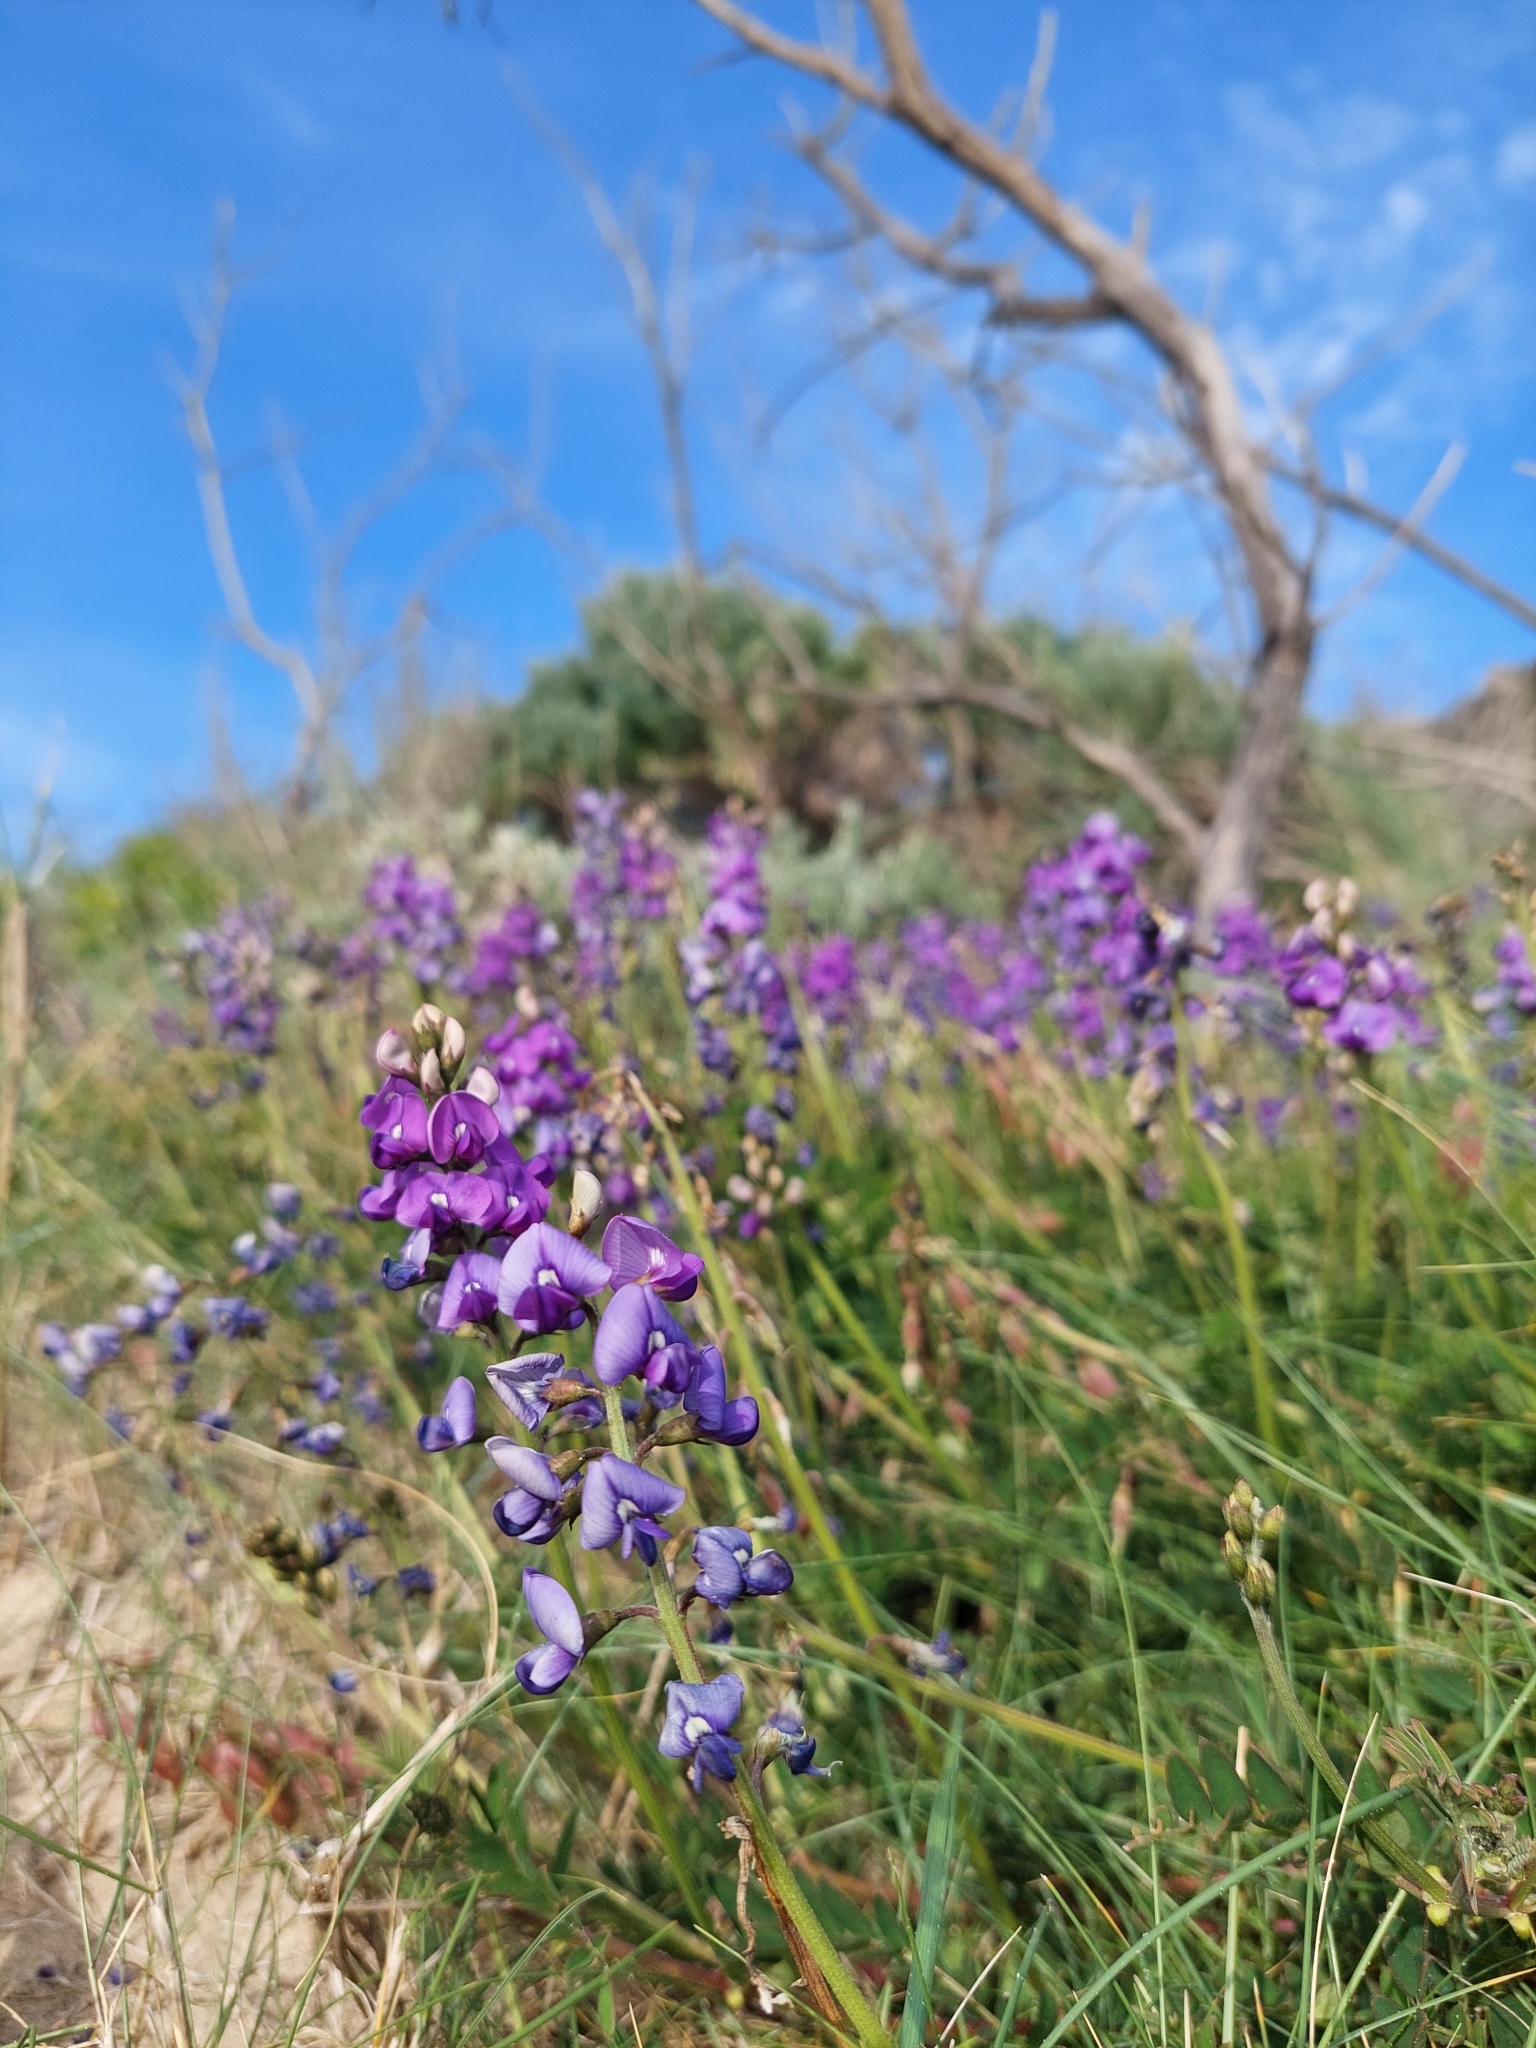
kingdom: Plantae
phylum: Tracheophyta
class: Magnoliopsida
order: Fabales
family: Fabaceae
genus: Swainsona
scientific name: Swainsona lessertiifolia
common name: Bog-pea
